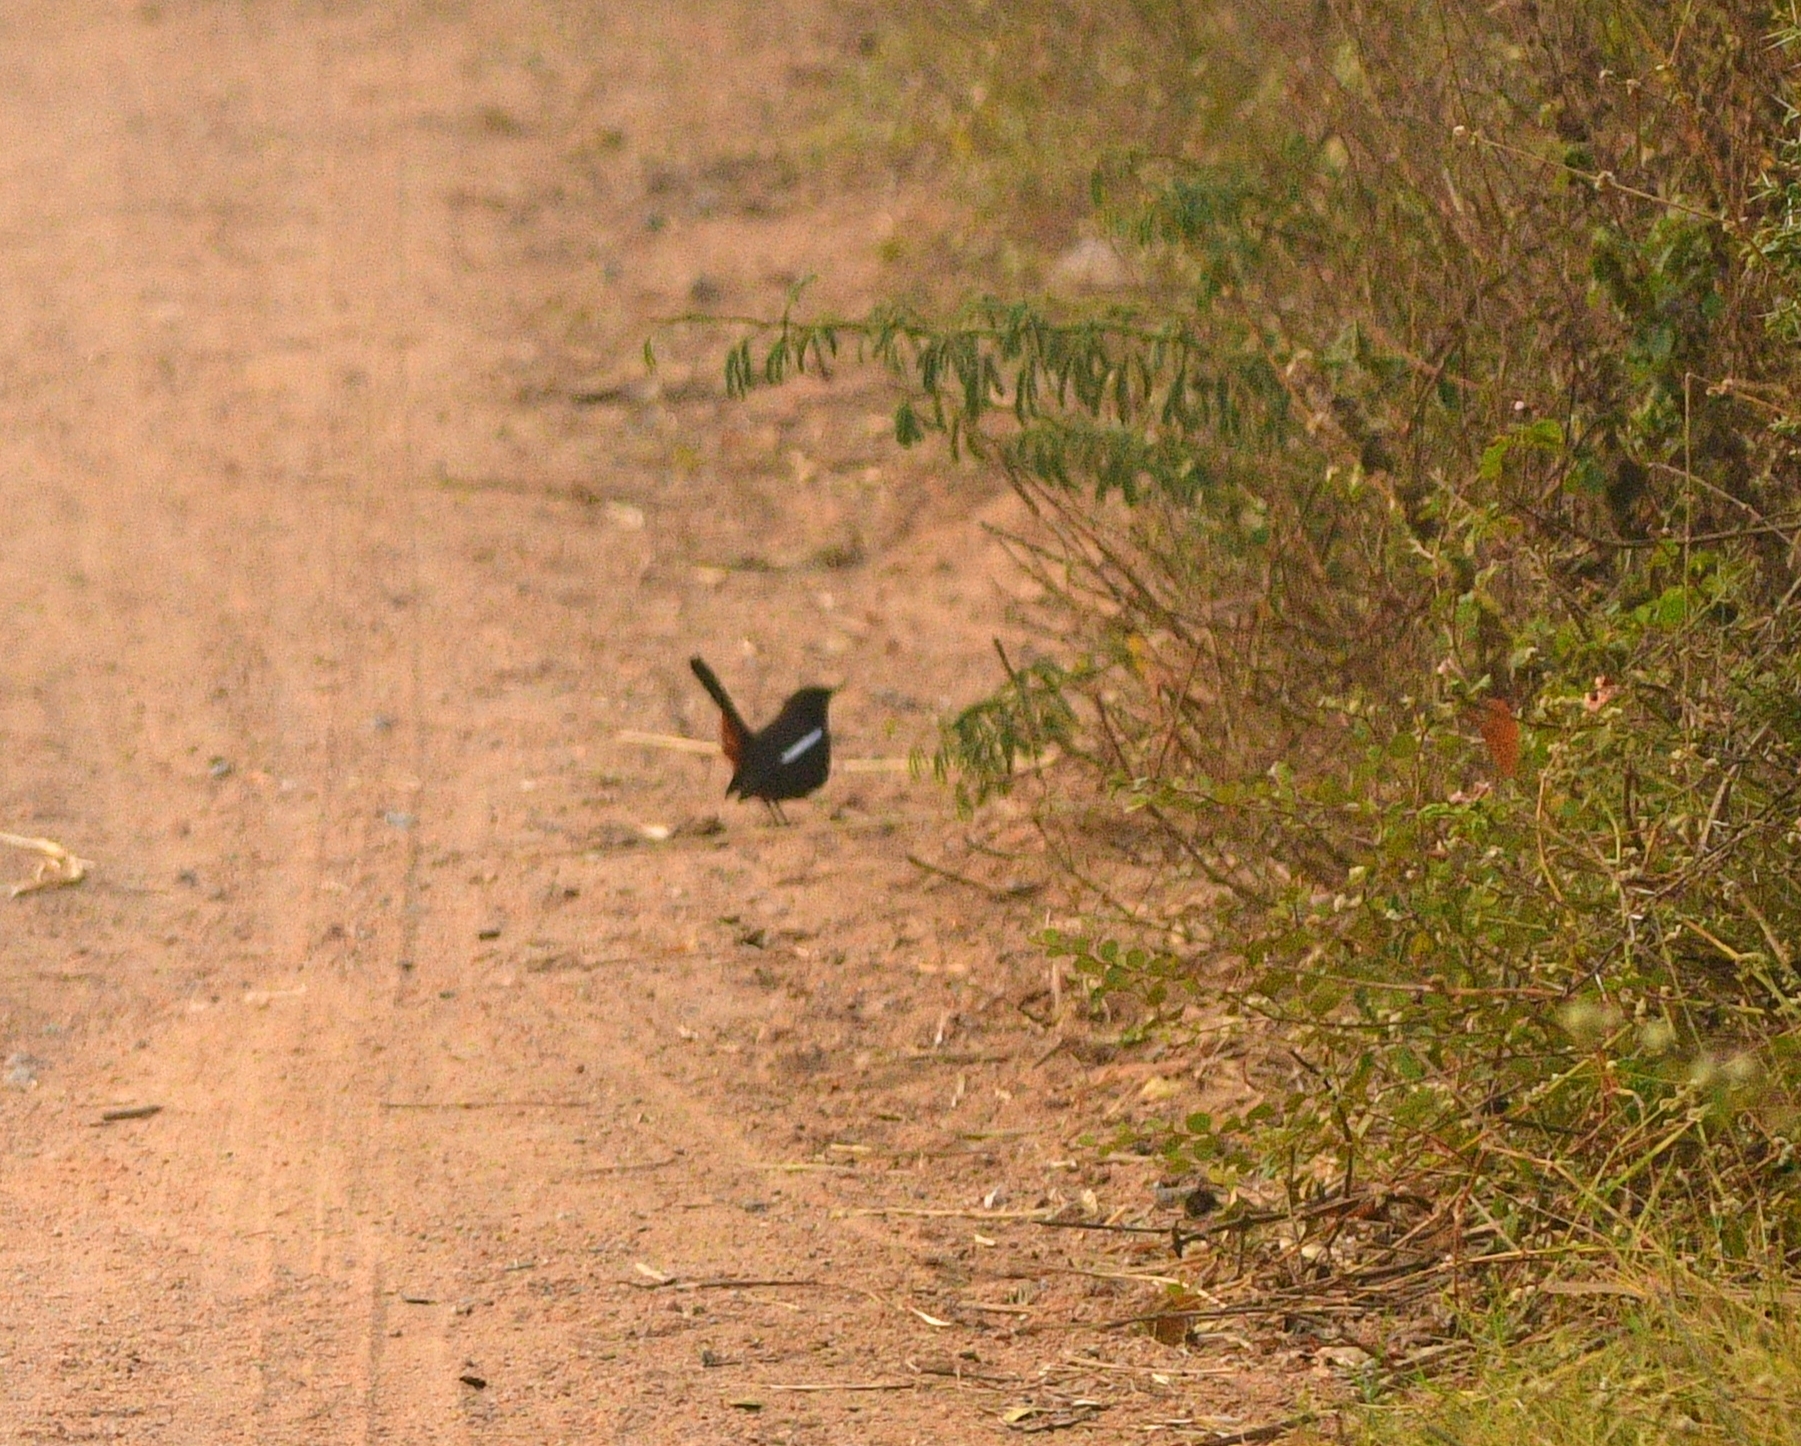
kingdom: Animalia
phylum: Chordata
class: Aves
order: Passeriformes
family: Muscicapidae
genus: Saxicoloides
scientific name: Saxicoloides fulicatus
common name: Indian robin
